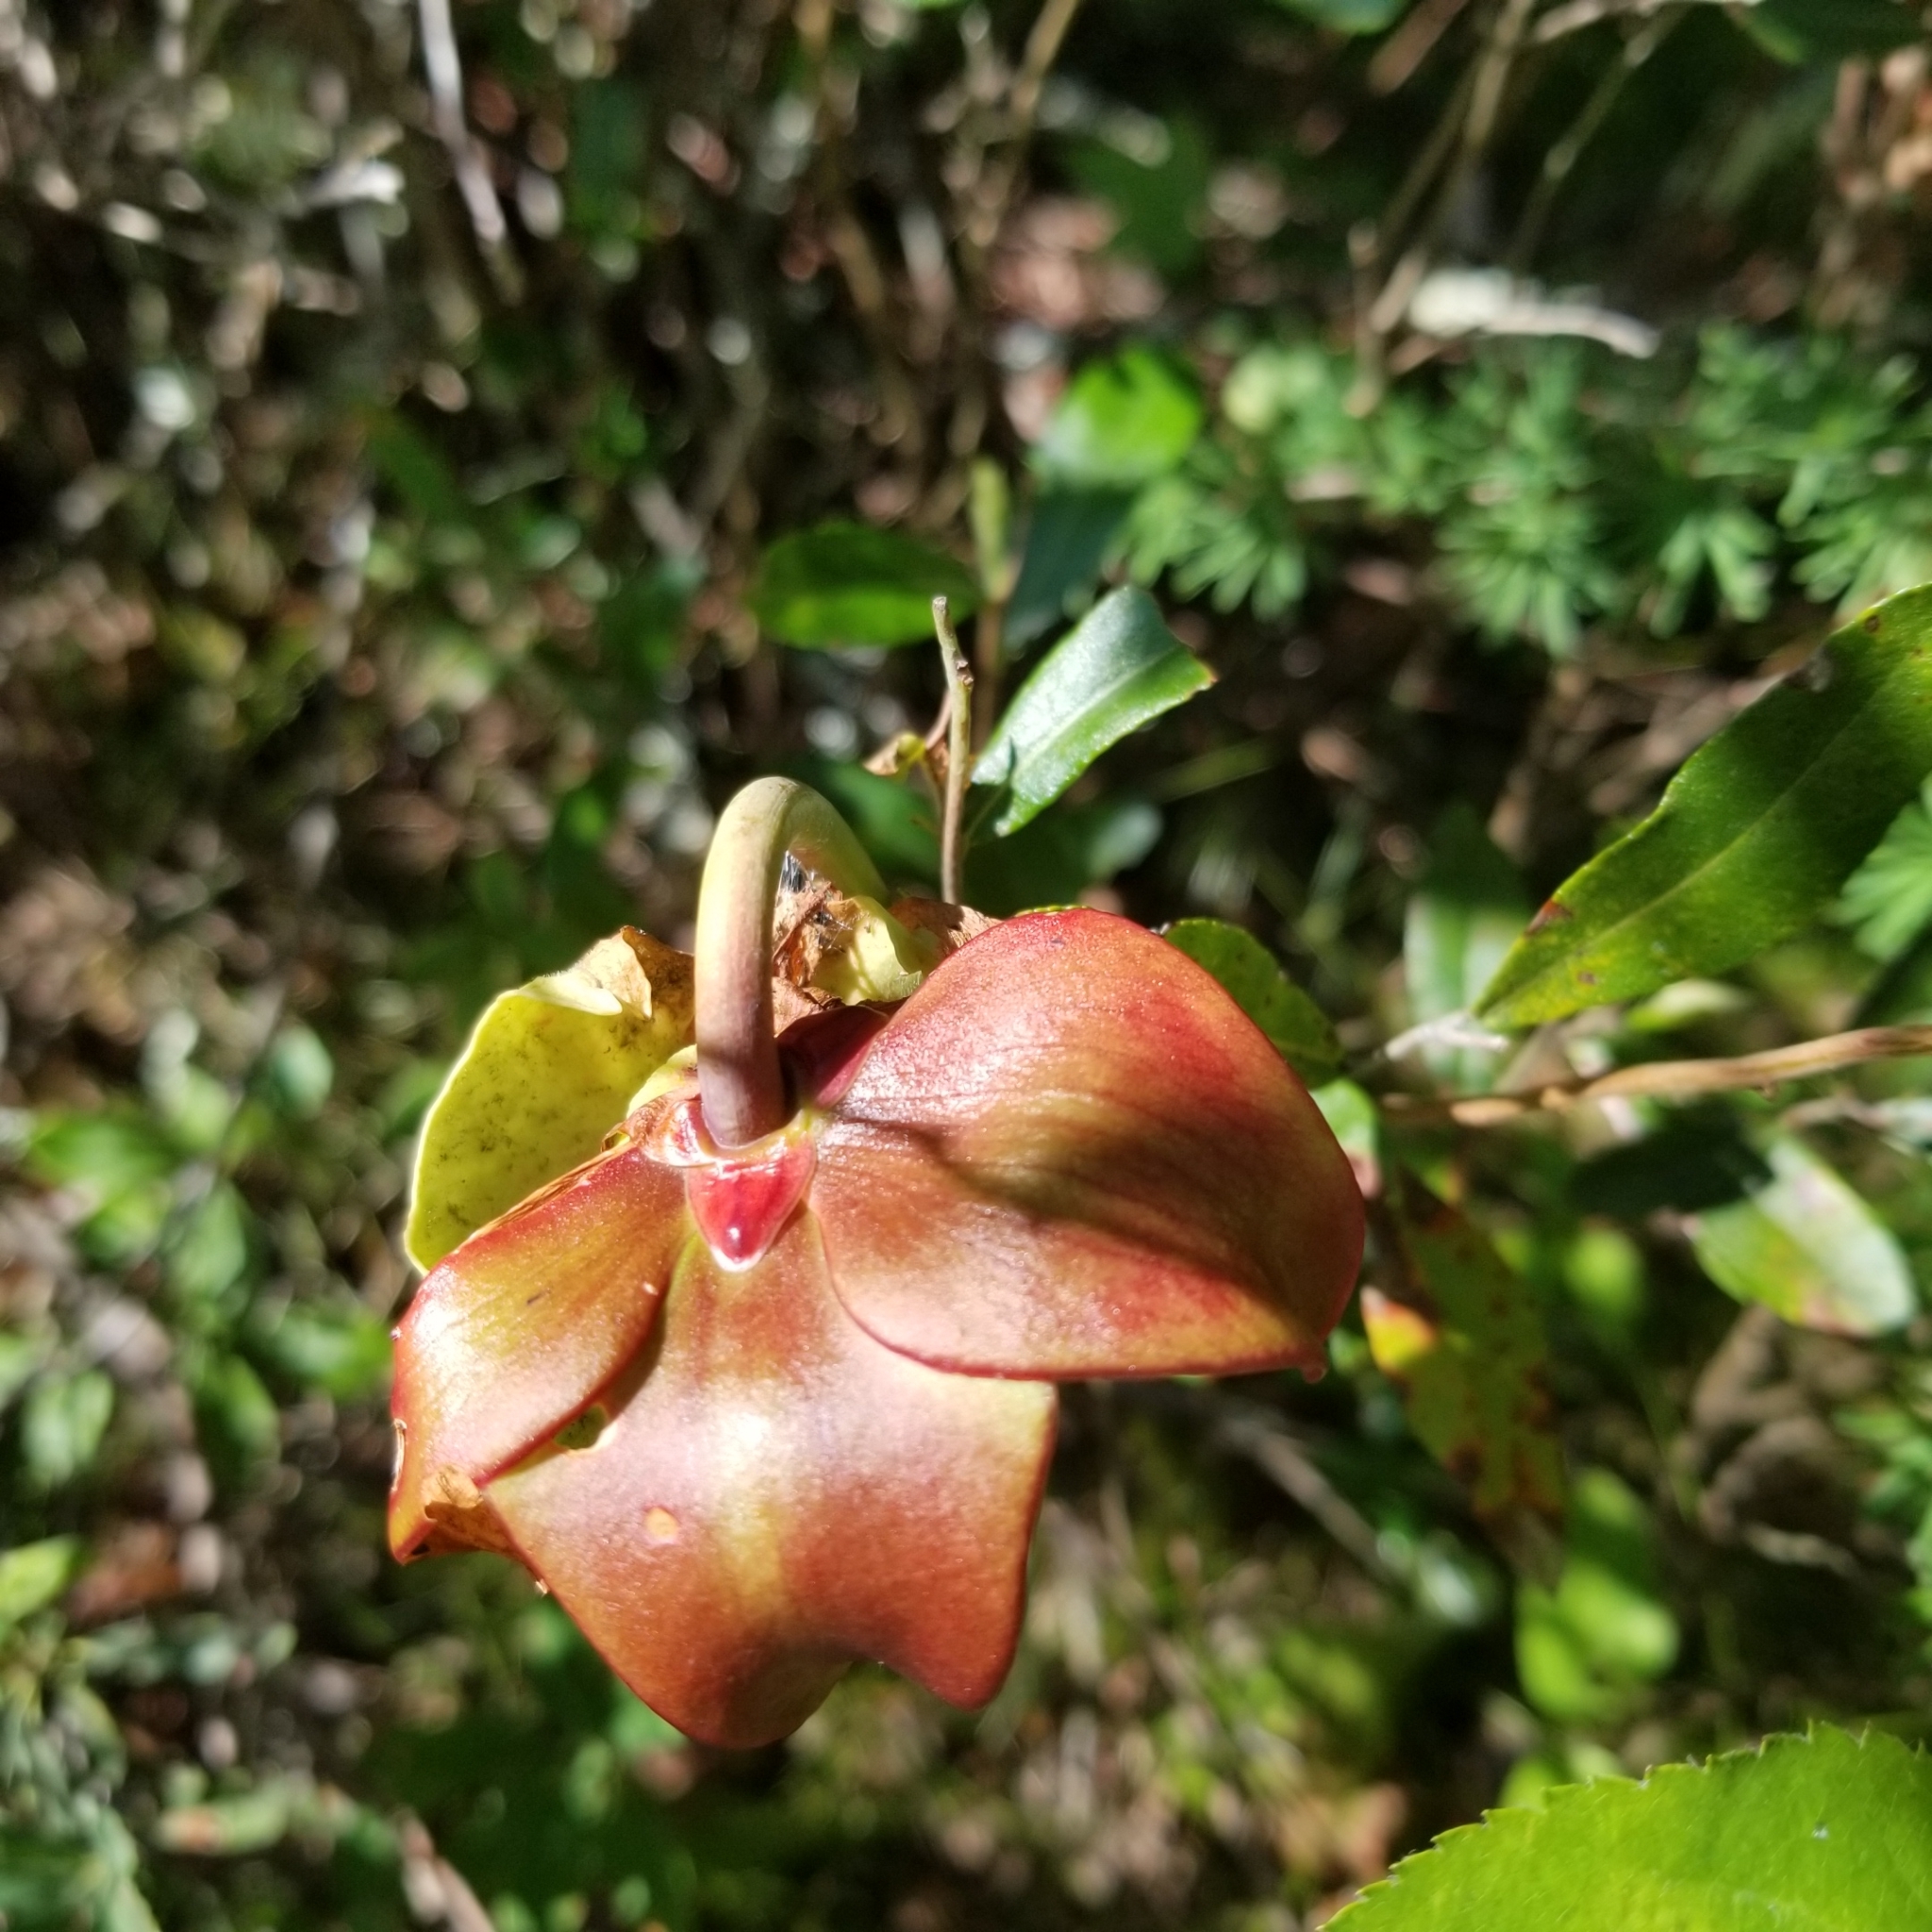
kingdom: Plantae
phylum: Tracheophyta
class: Magnoliopsida
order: Ericales
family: Sarraceniaceae
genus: Sarracenia
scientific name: Sarracenia purpurea
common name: Pitcherplant
